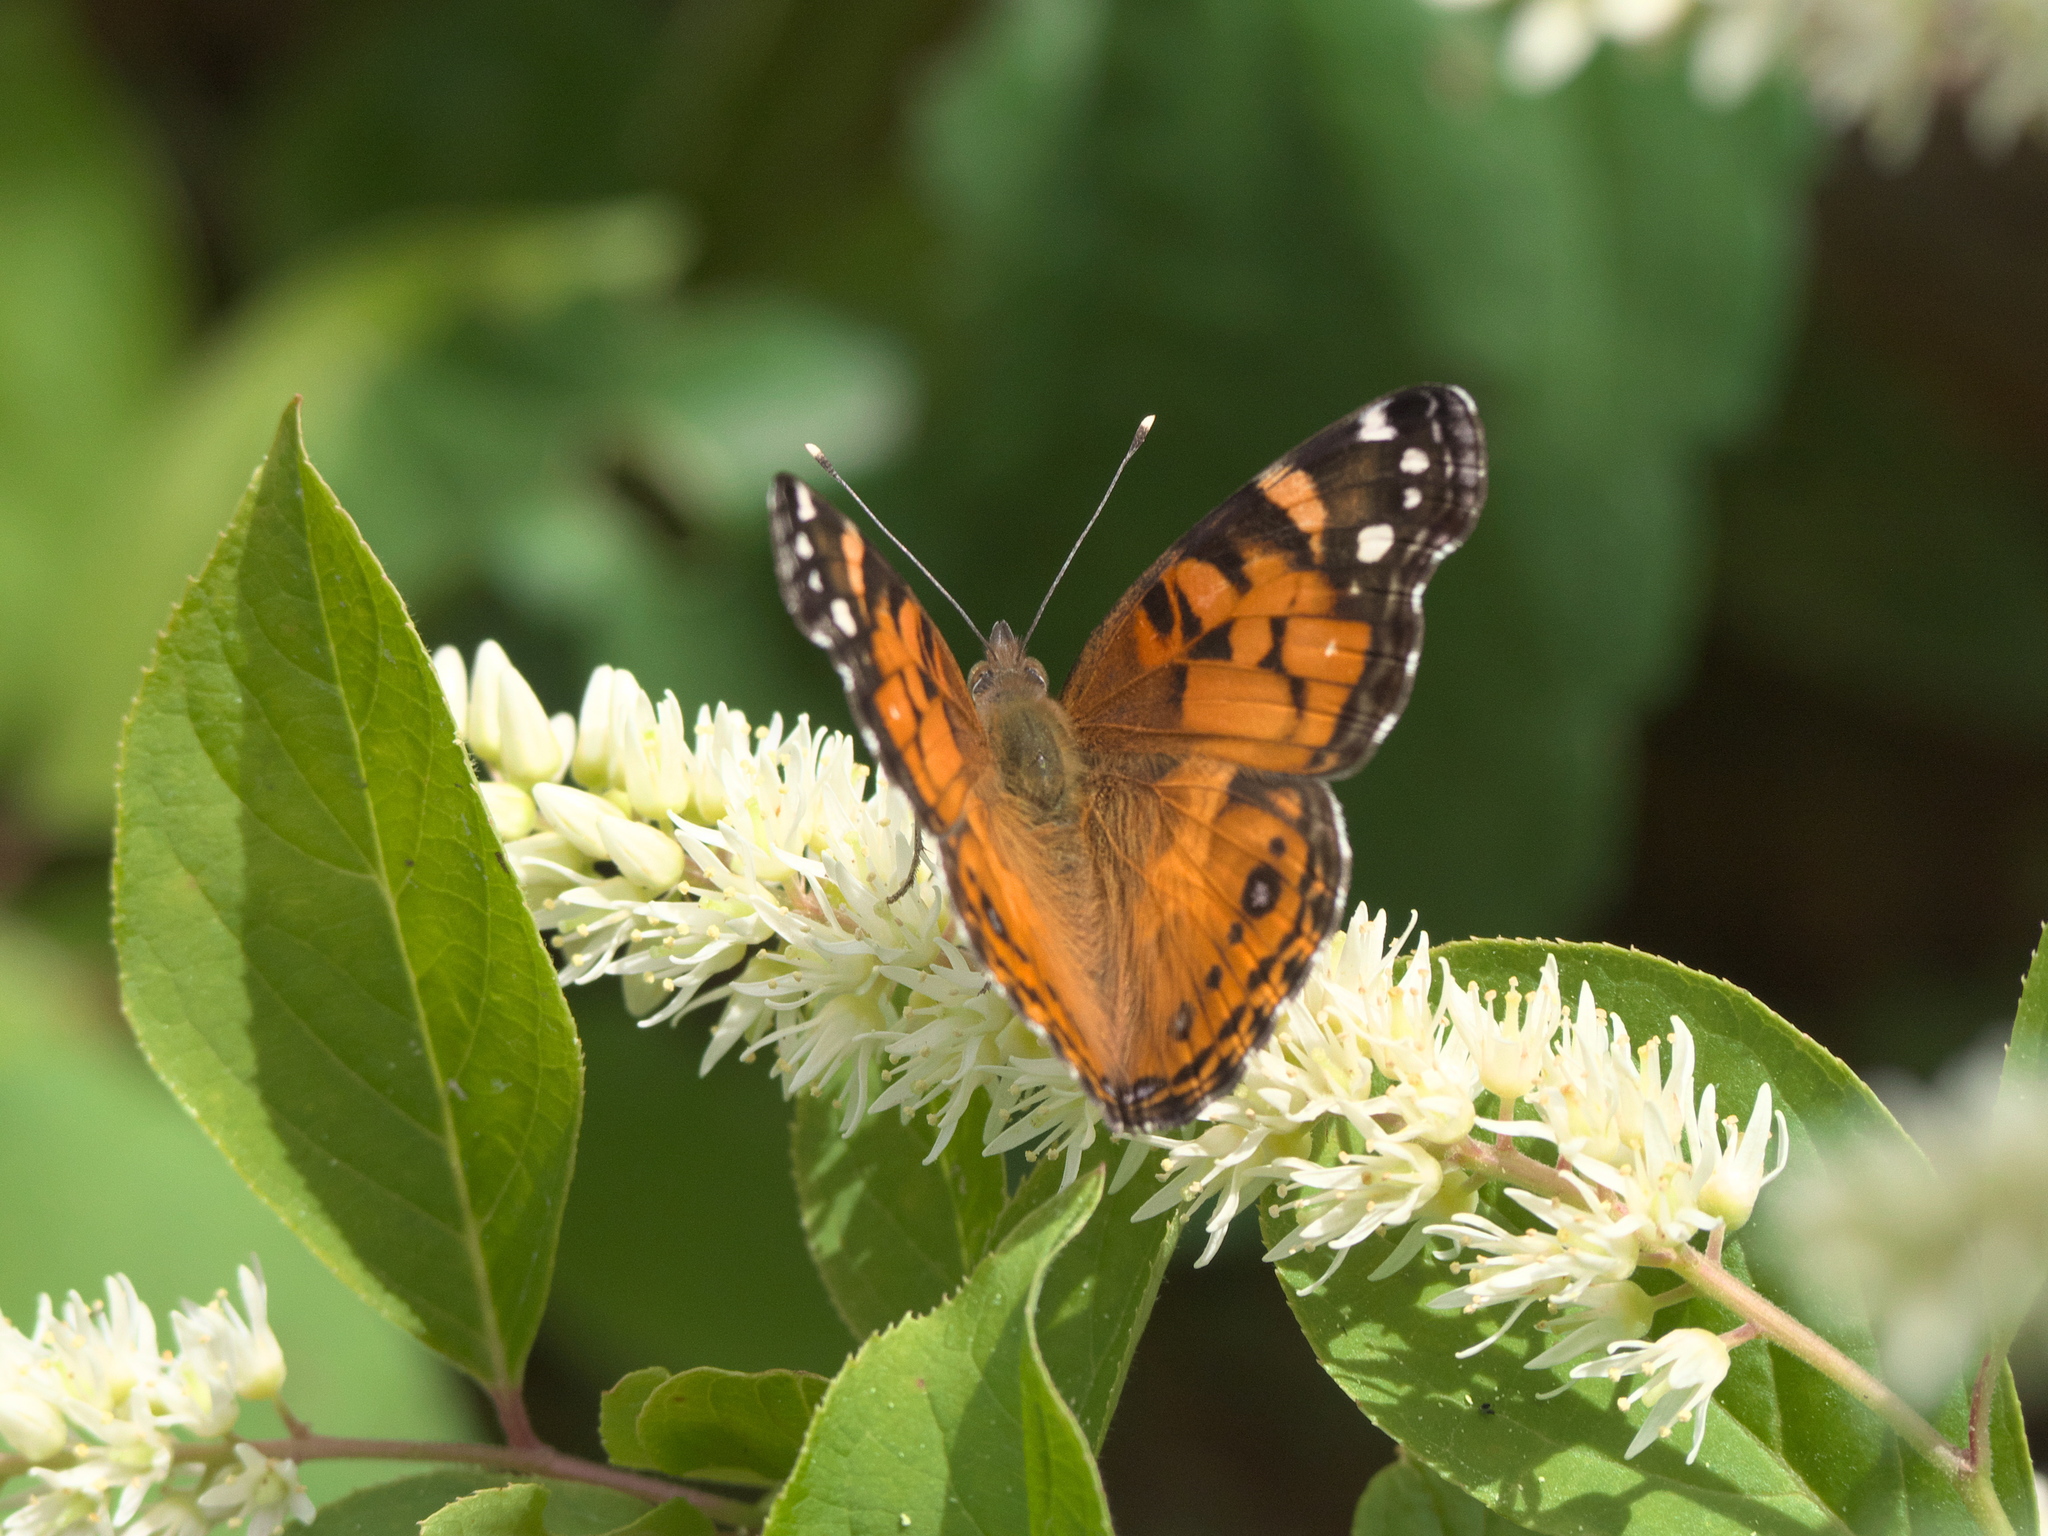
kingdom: Animalia
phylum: Arthropoda
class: Insecta
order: Lepidoptera
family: Nymphalidae
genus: Vanessa
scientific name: Vanessa virginiensis
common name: American lady
